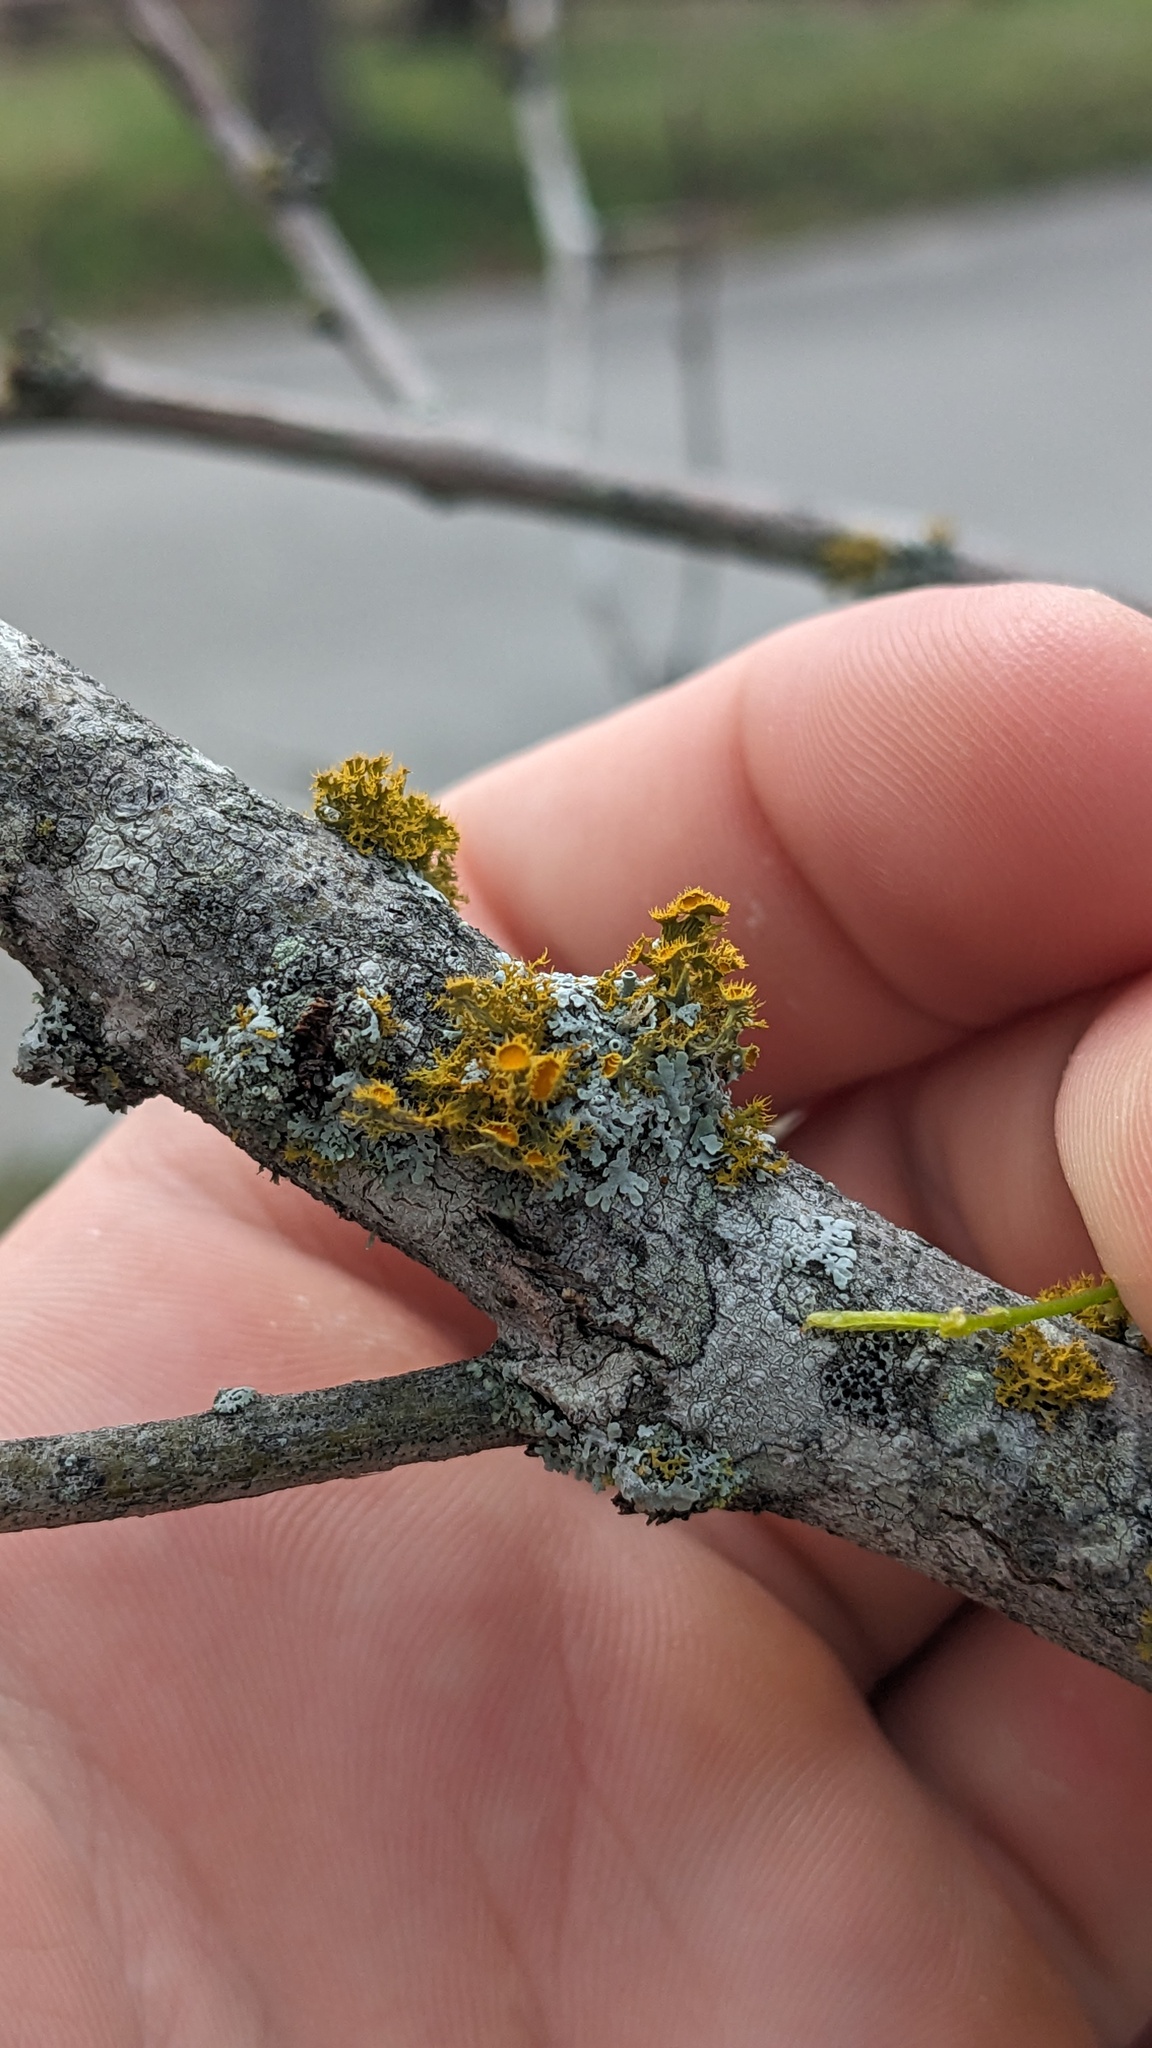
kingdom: Fungi
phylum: Ascomycota
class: Lecanoromycetes
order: Teloschistales
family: Teloschistaceae
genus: Niorma
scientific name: Niorma chrysophthalma
